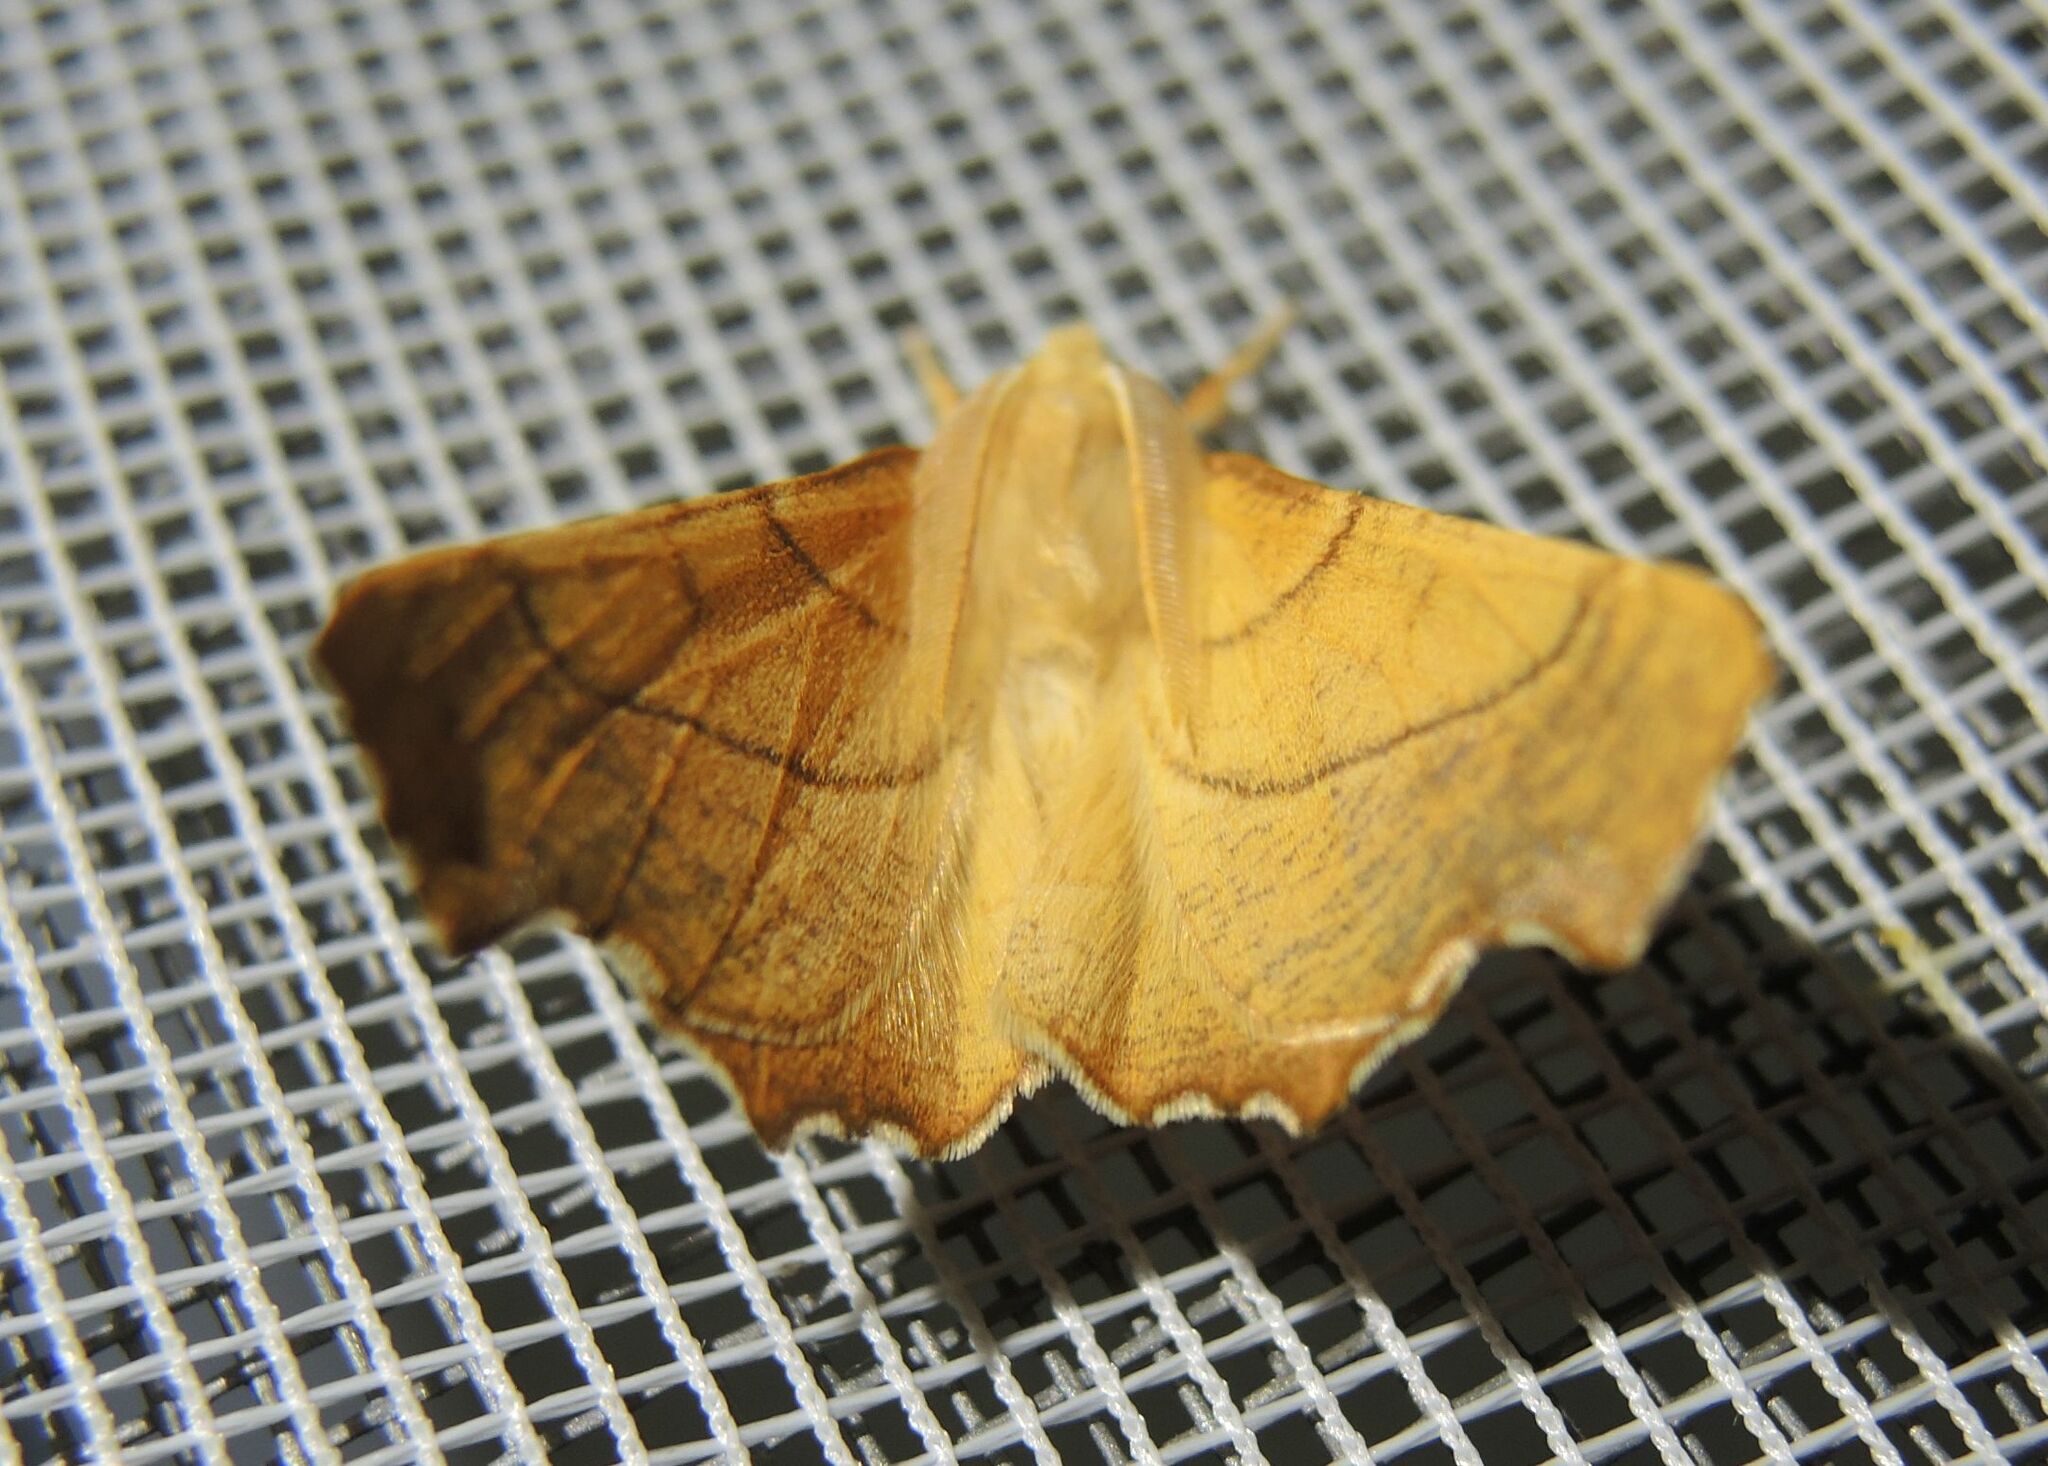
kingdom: Animalia
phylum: Arthropoda
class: Insecta
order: Lepidoptera
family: Geometridae
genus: Ennomos
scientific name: Ennomos fuscantaria
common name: Dusky thorn
